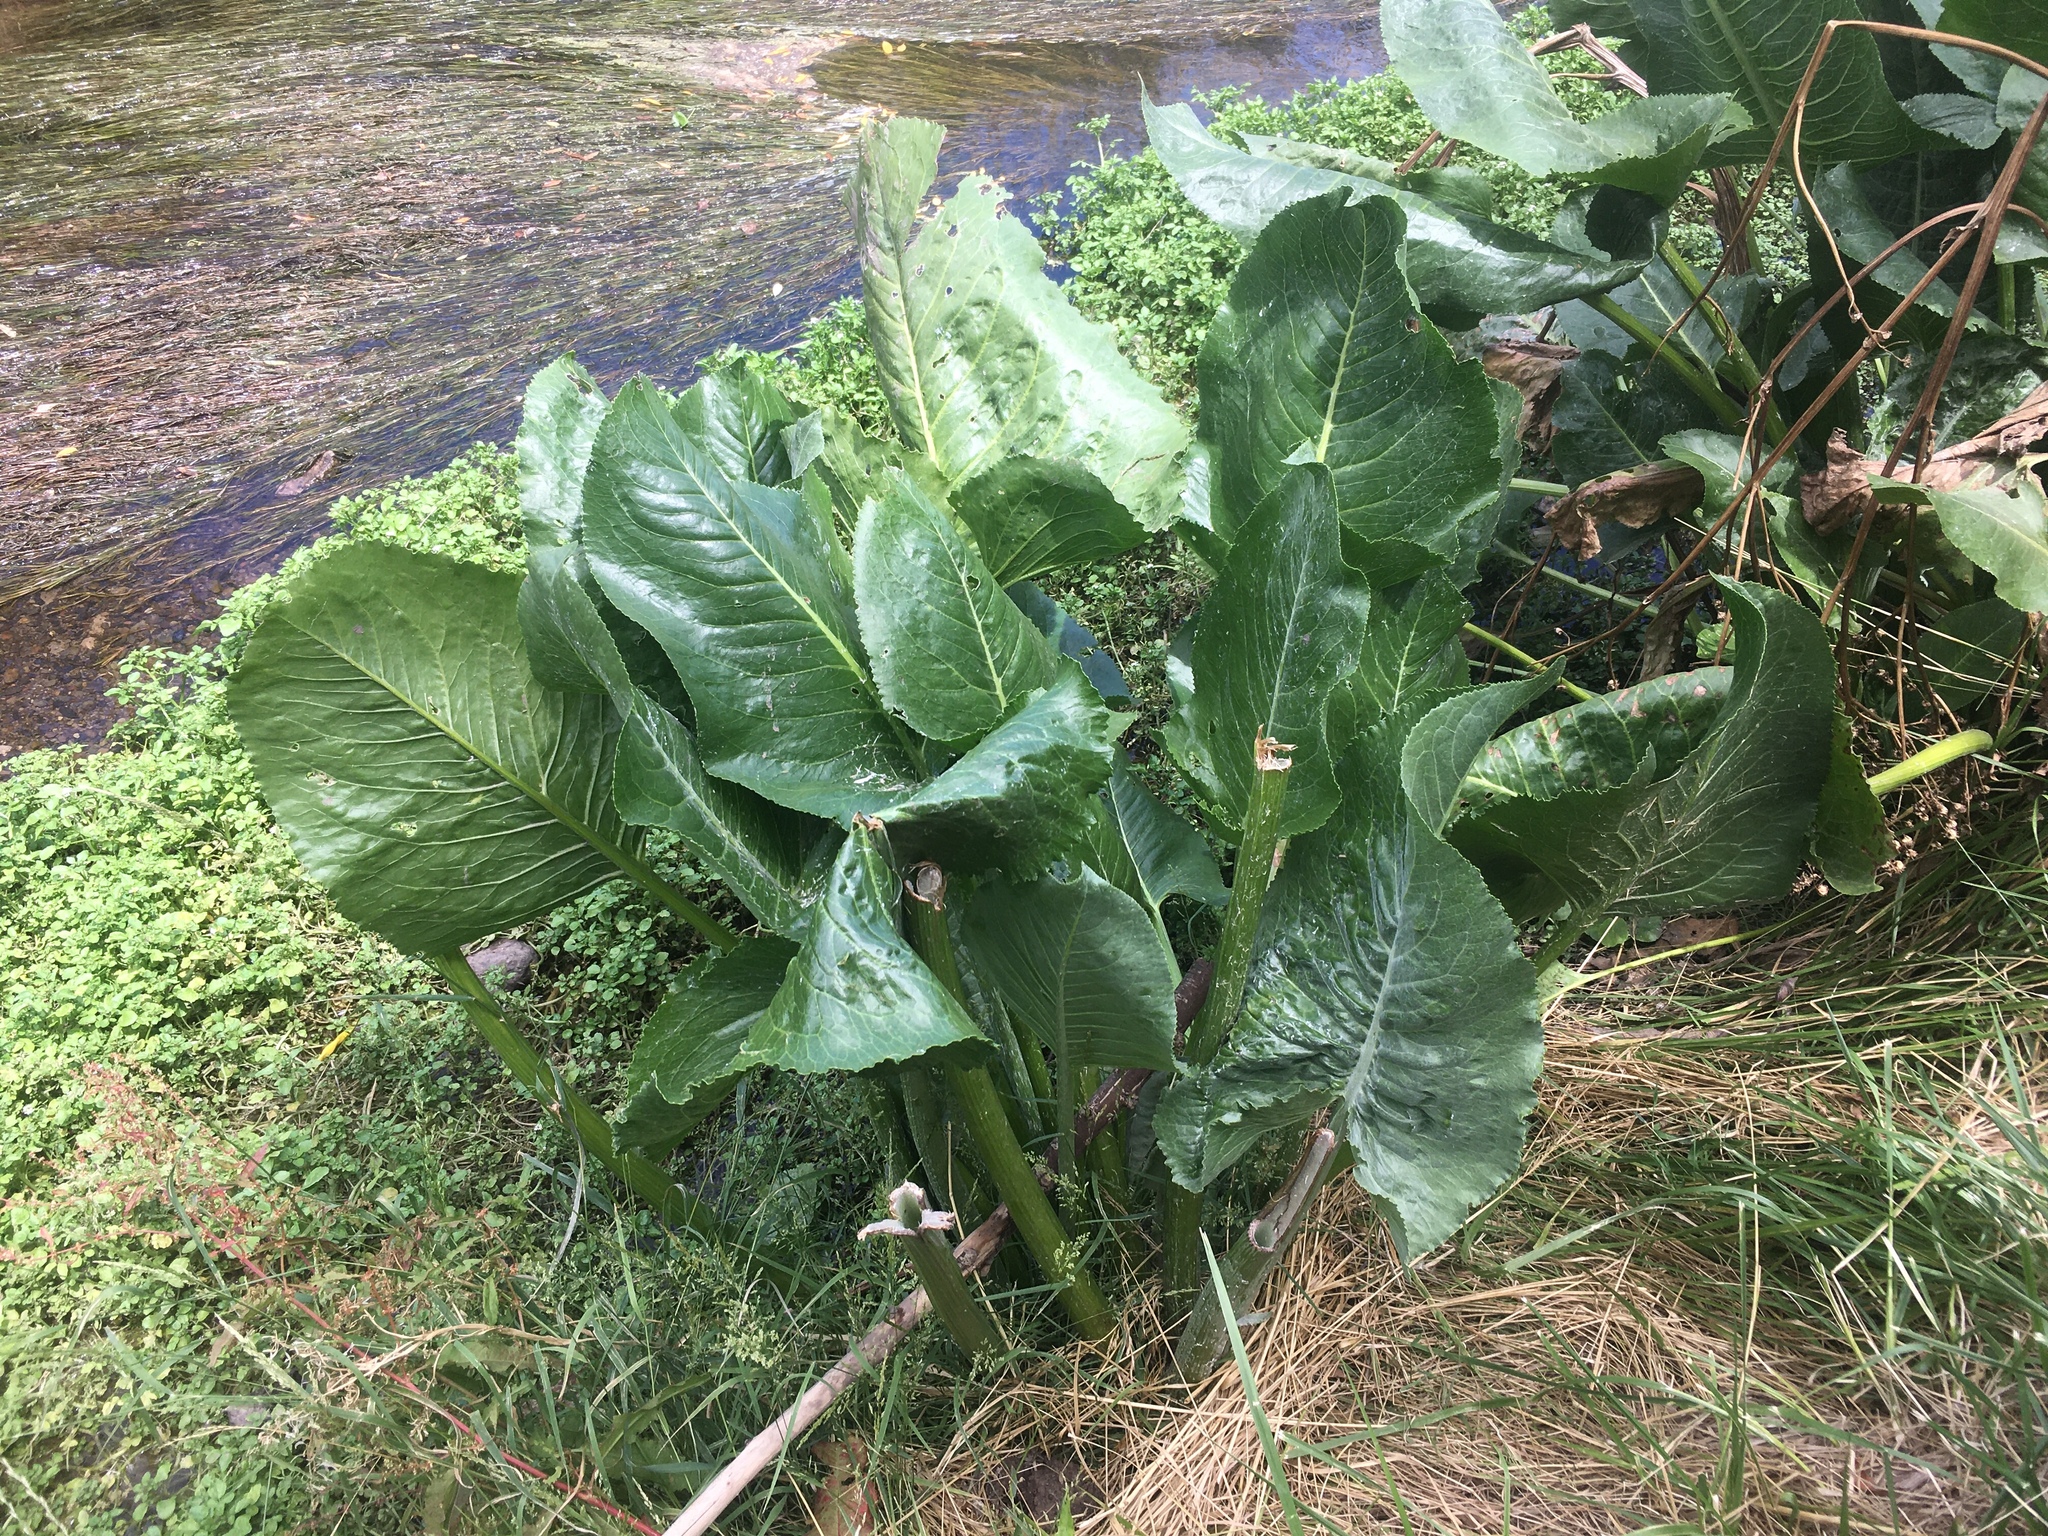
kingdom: Plantae
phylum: Tracheophyta
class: Magnoliopsida
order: Asterales
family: Asteraceae
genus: Senecio
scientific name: Senecio bonariensis
